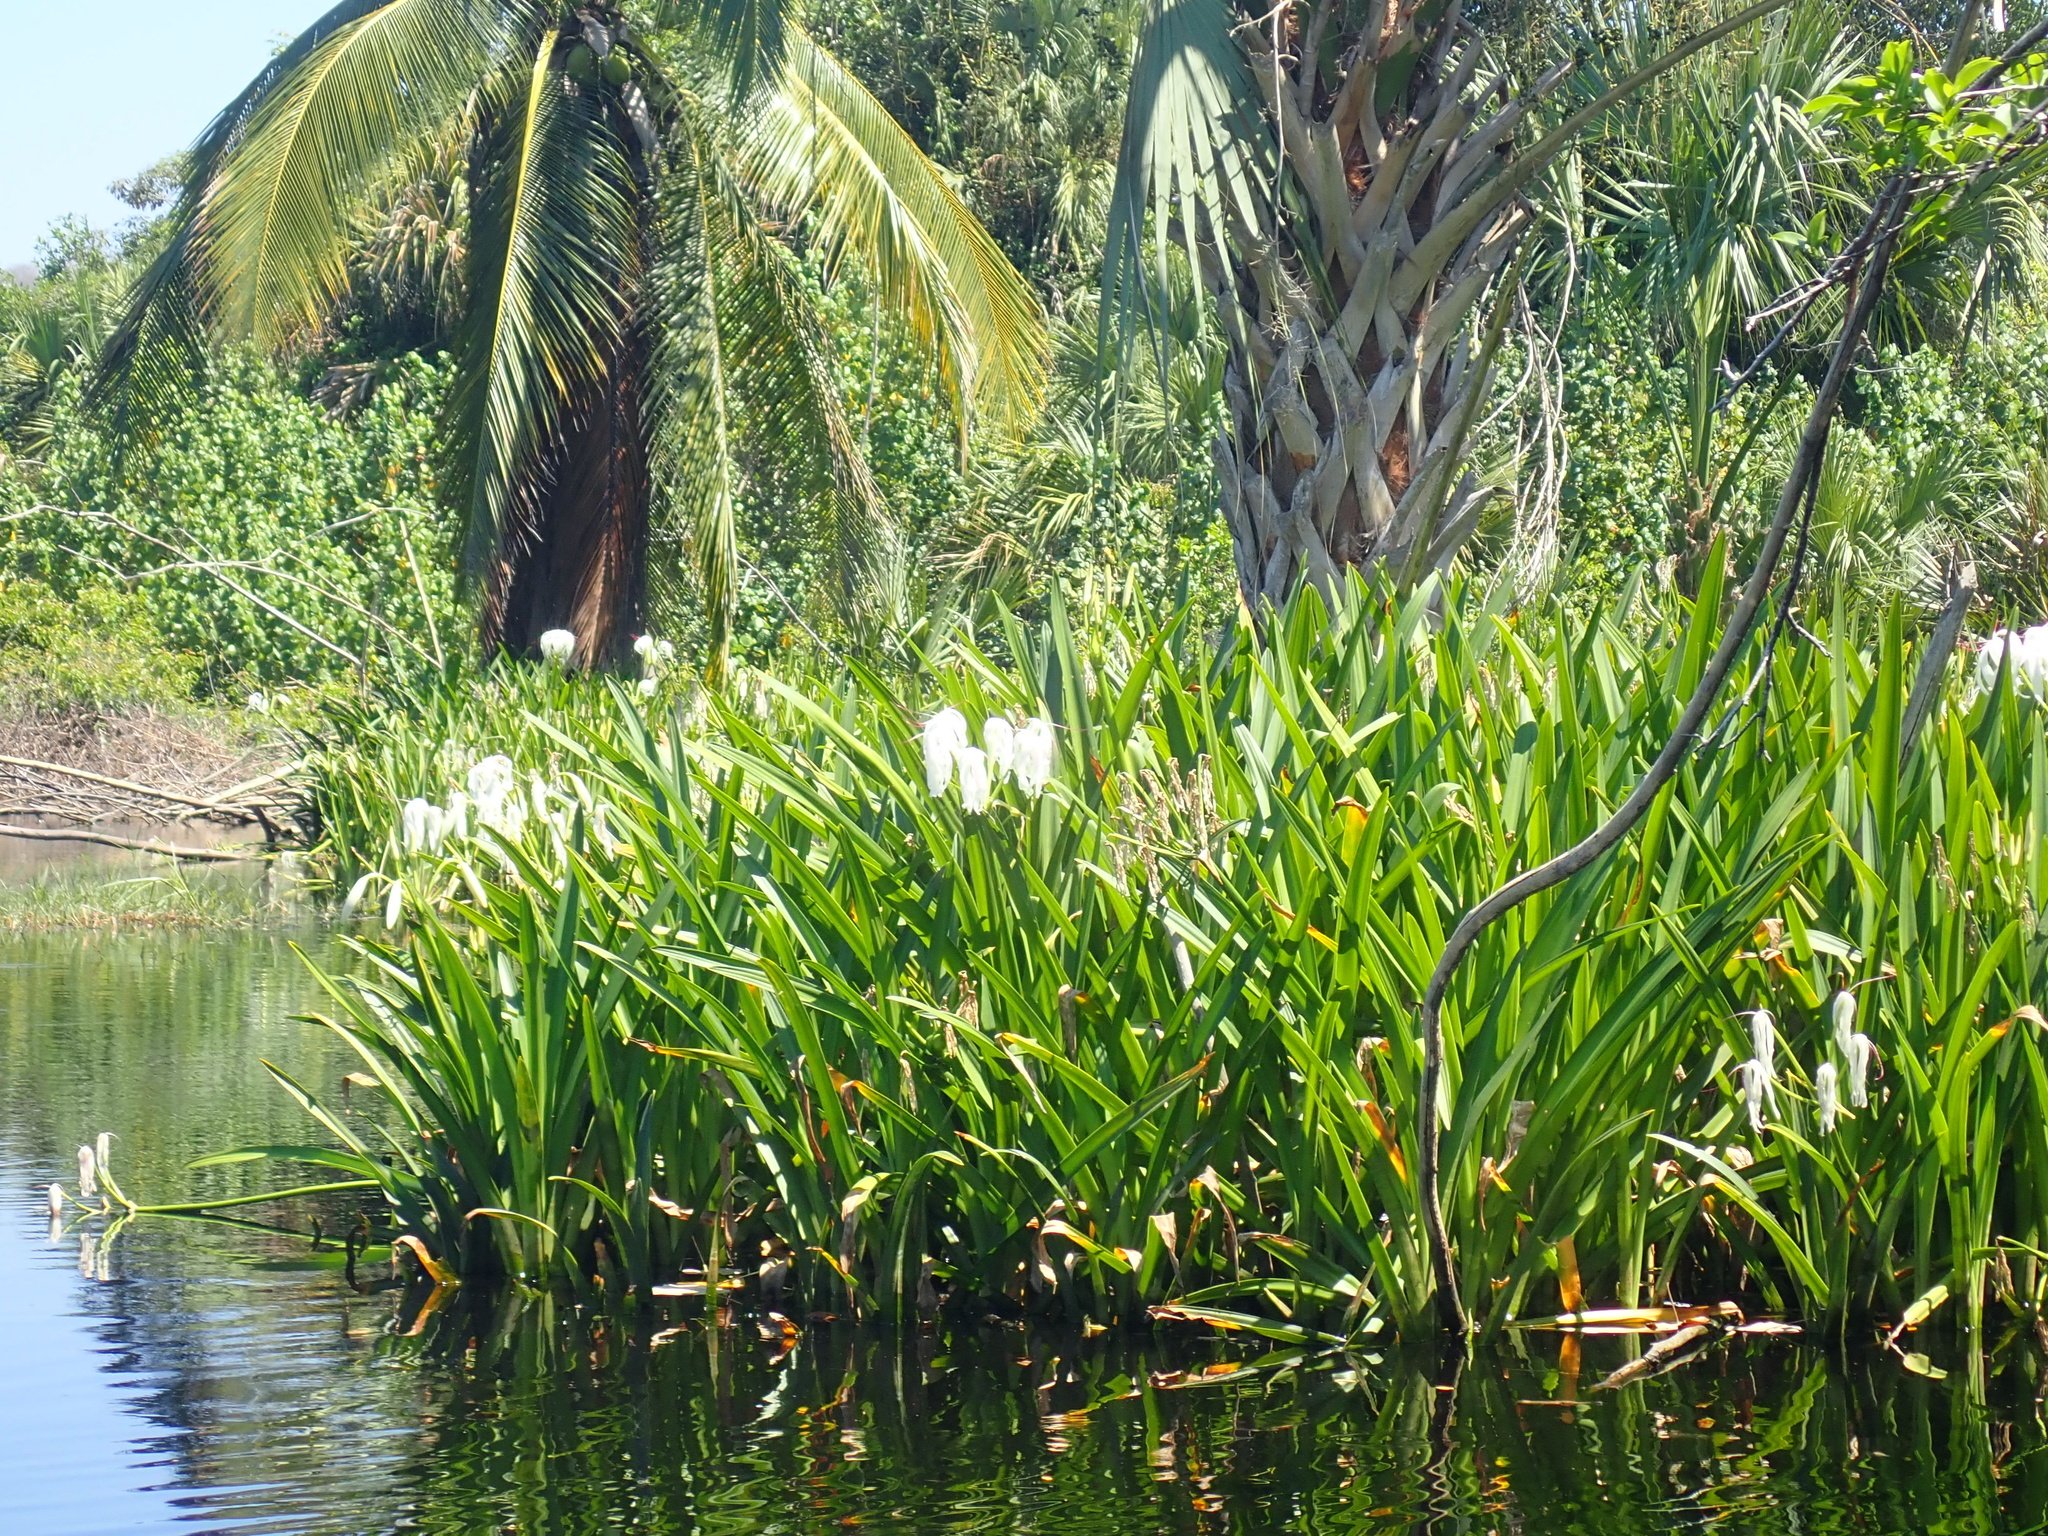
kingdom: Plantae
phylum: Tracheophyta
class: Liliopsida
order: Asparagales
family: Amaryllidaceae
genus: Crinum
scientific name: Crinum americanum
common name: Florida swamp-lily
